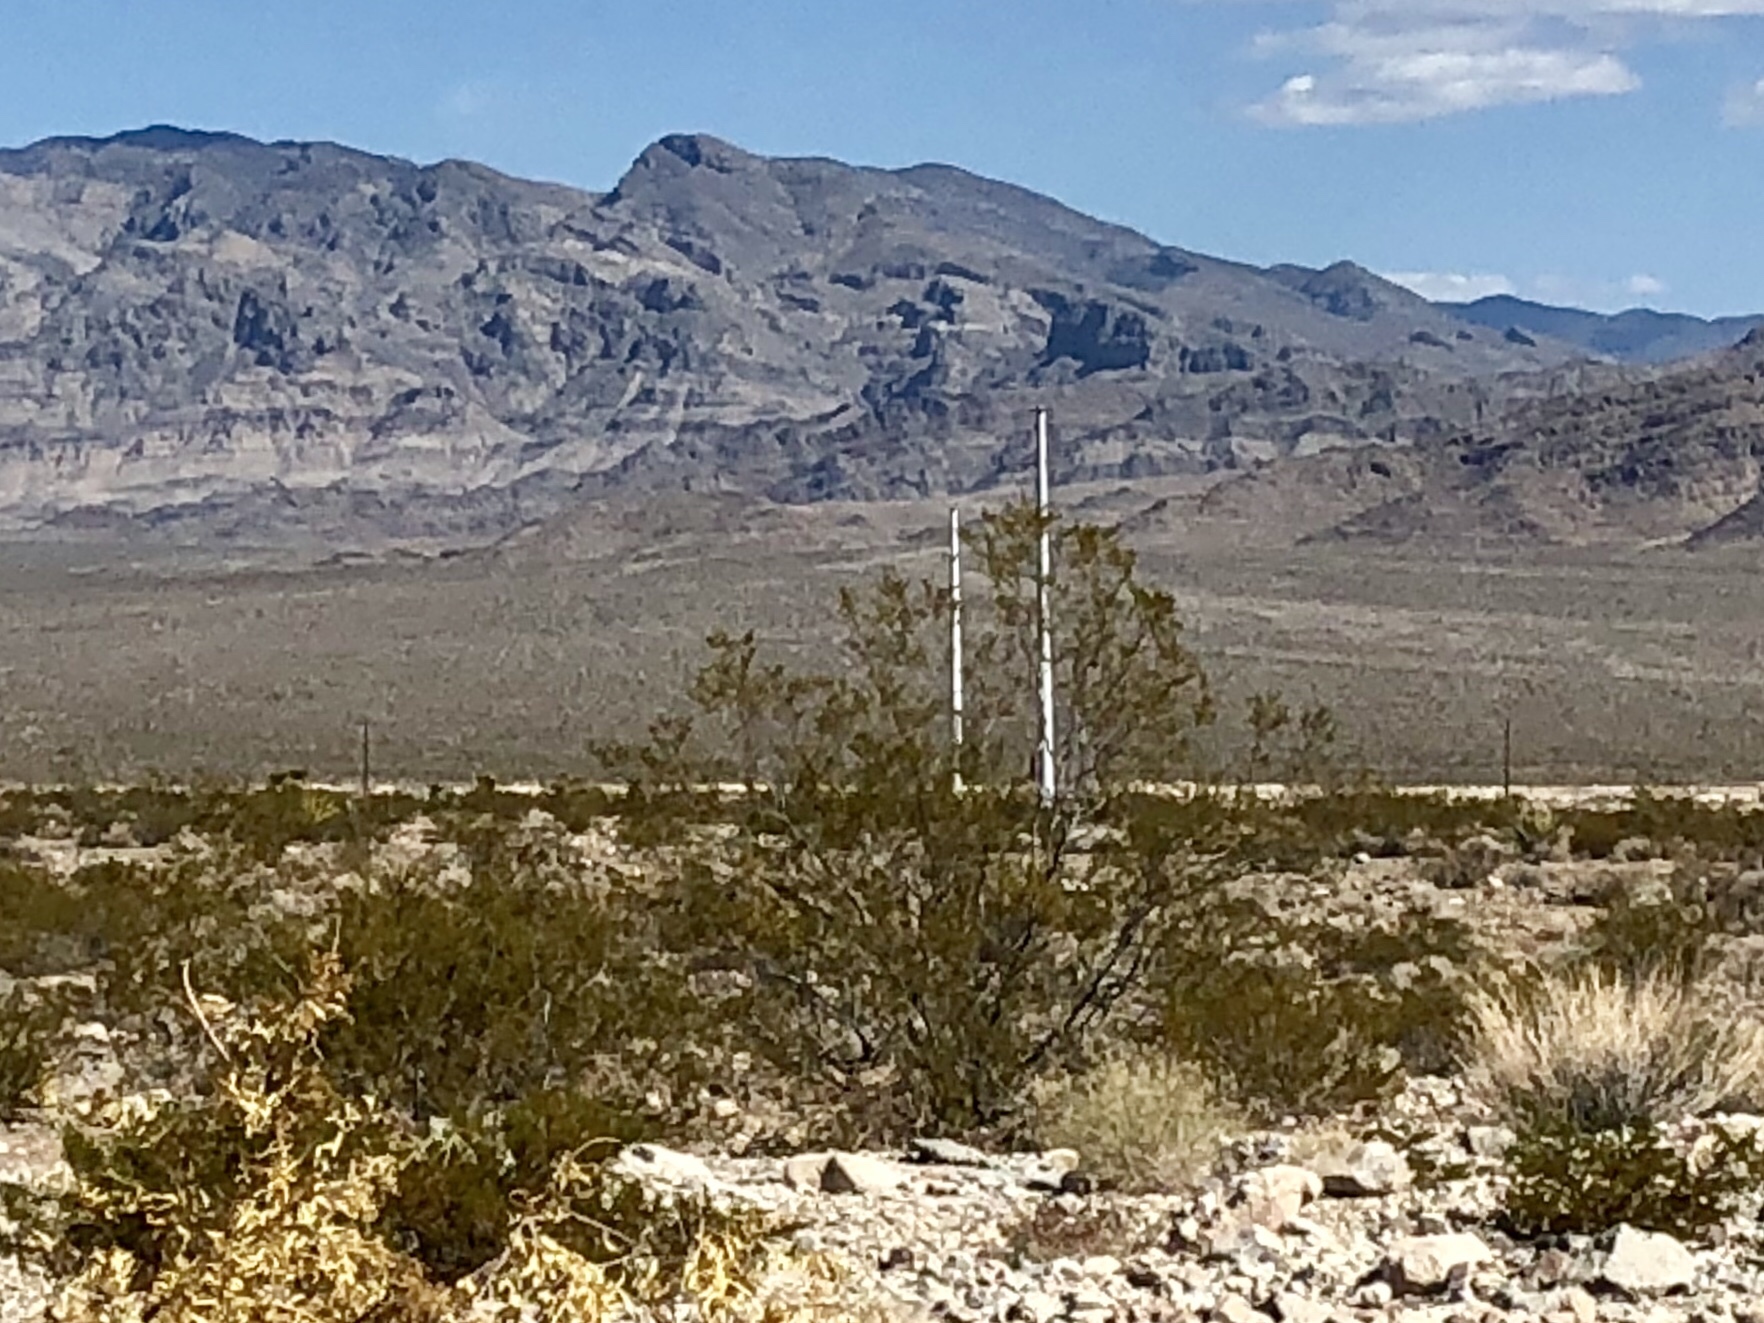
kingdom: Plantae
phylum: Tracheophyta
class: Magnoliopsida
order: Zygophyllales
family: Zygophyllaceae
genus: Larrea
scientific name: Larrea tridentata
